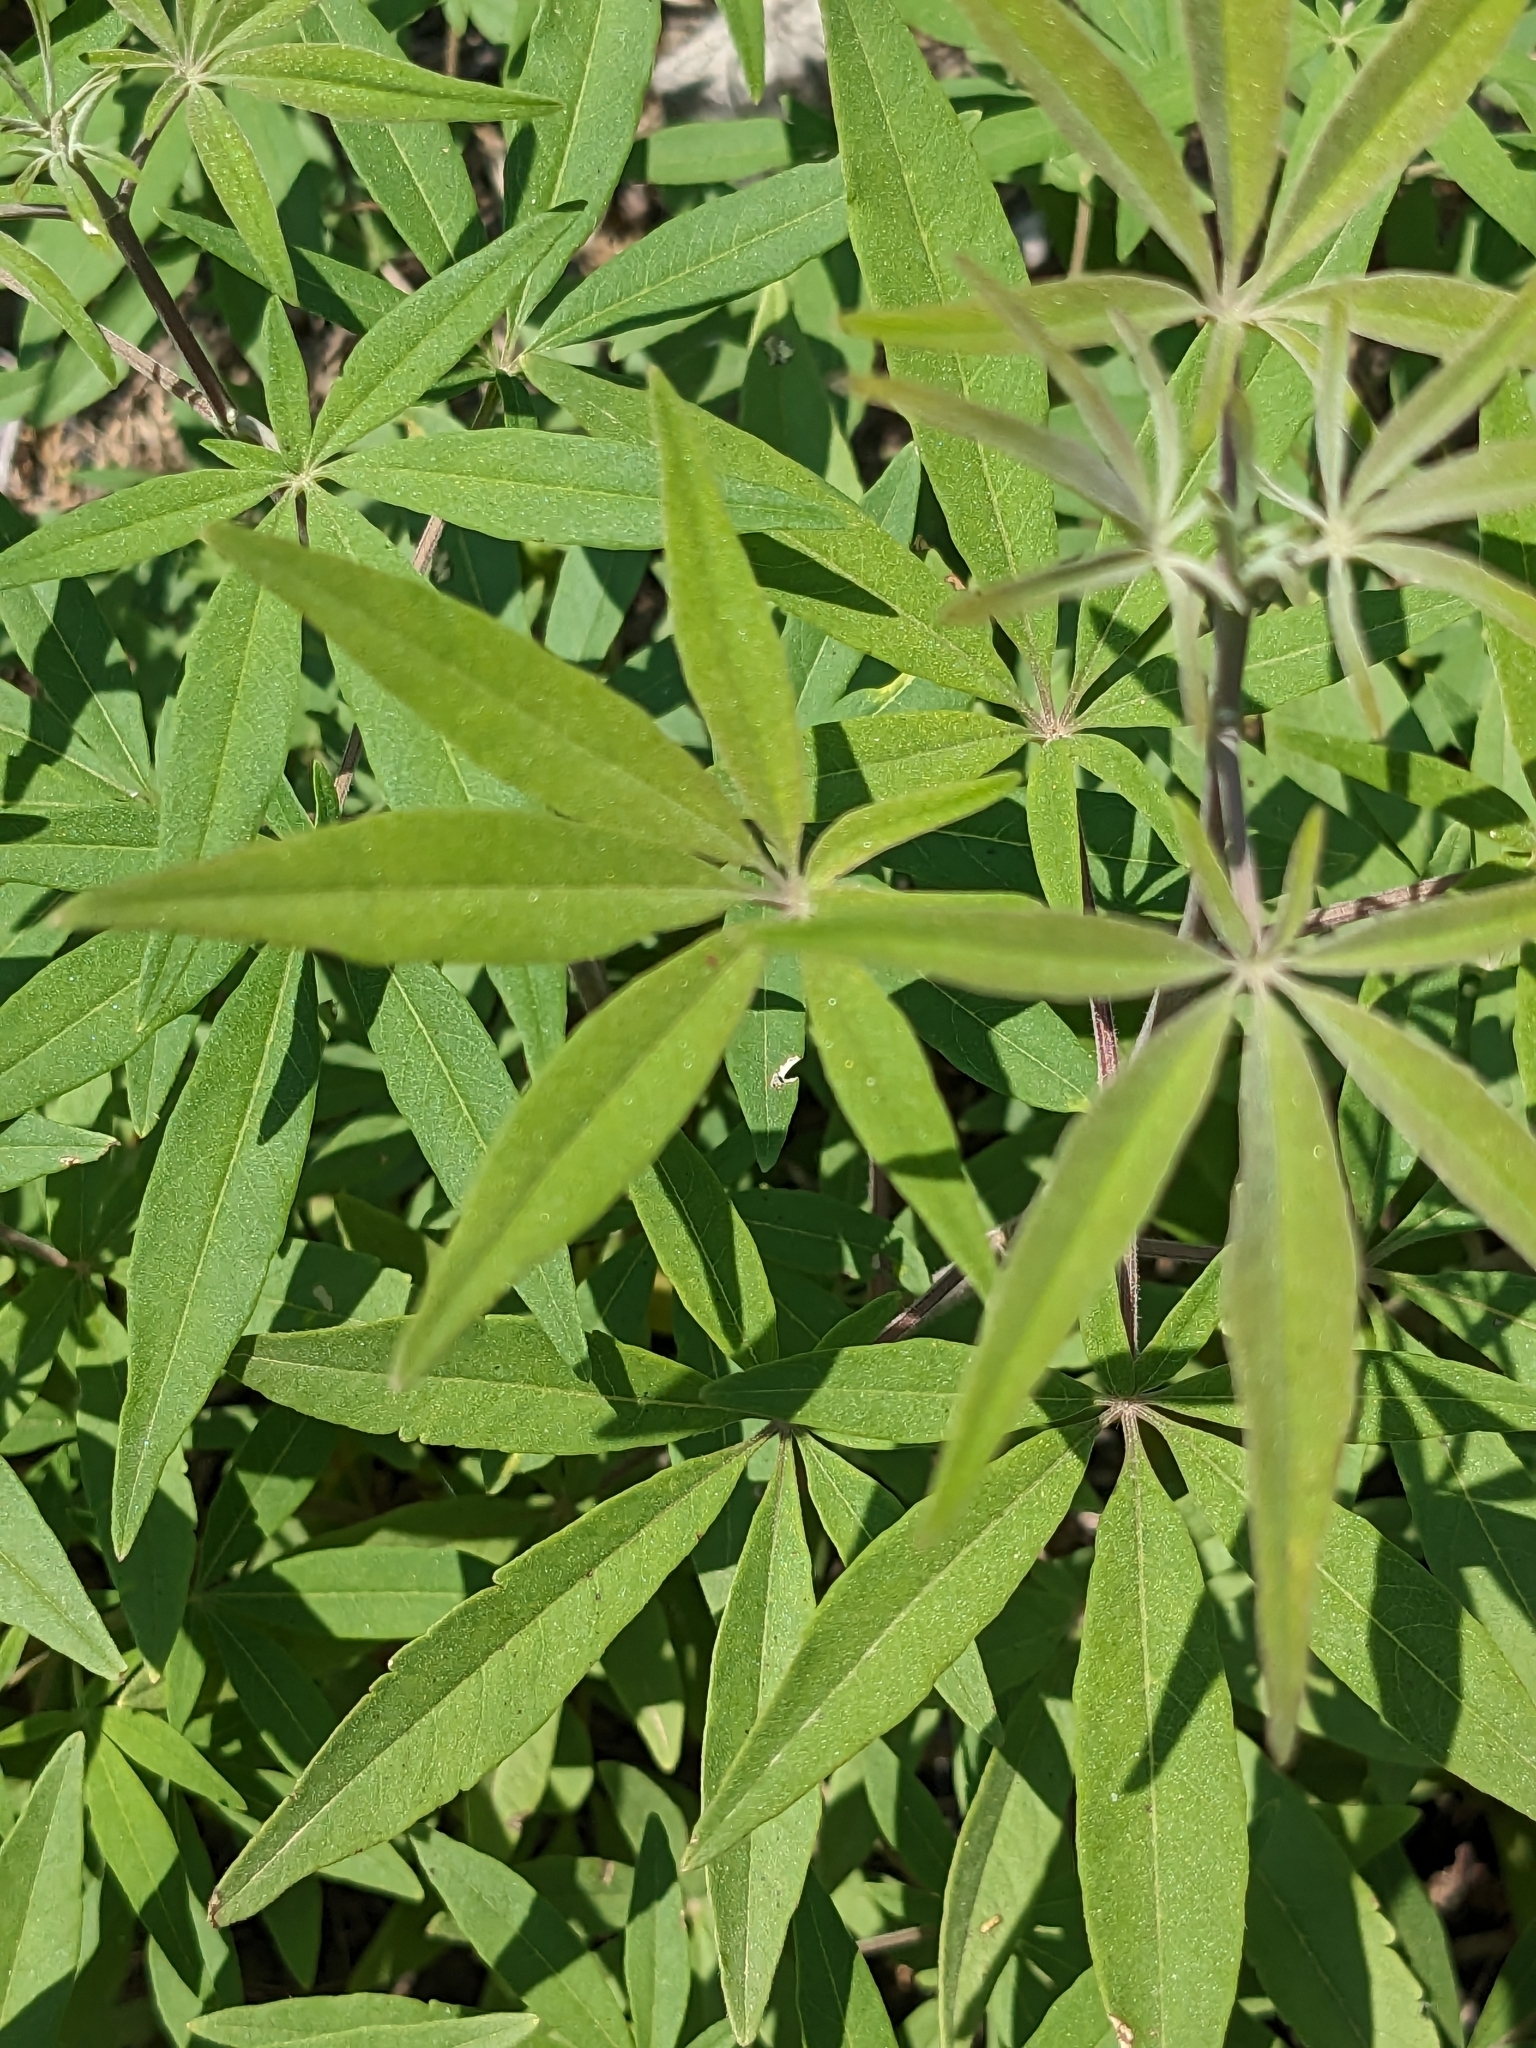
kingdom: Plantae
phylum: Tracheophyta
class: Magnoliopsida
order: Lamiales
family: Lamiaceae
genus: Vitex
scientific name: Vitex agnus-castus
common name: Chasteberry
